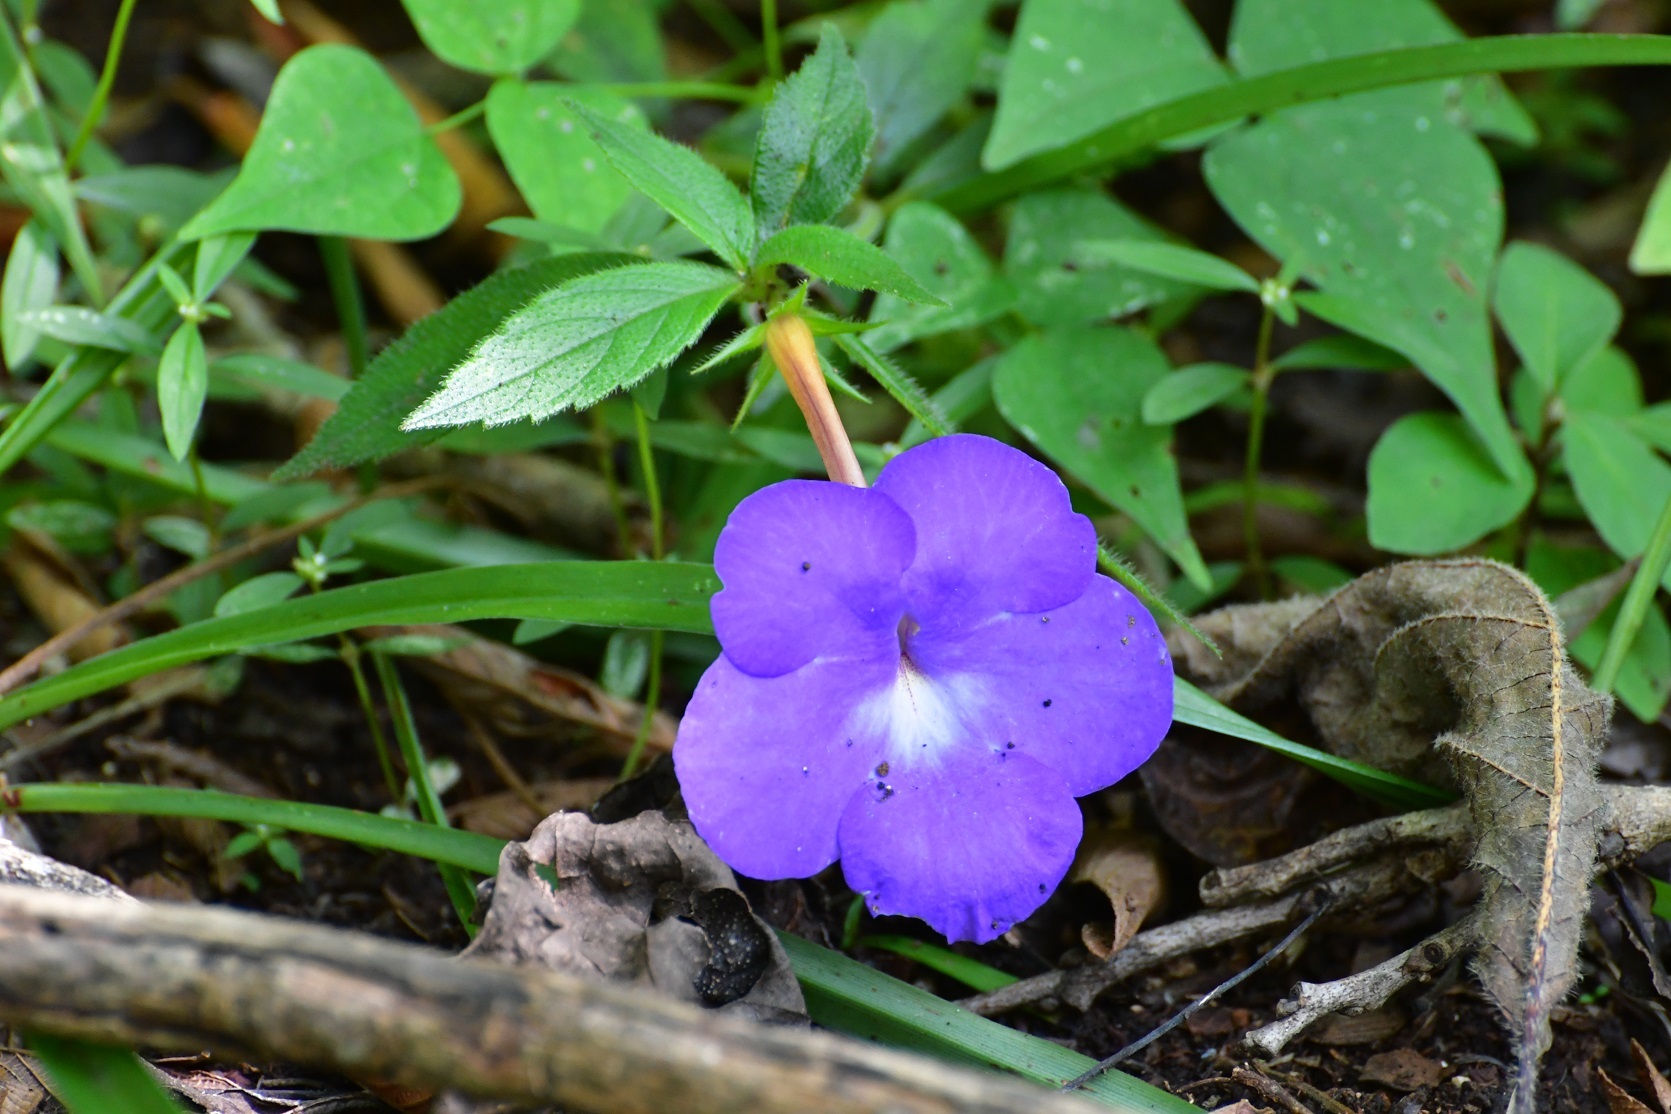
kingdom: Plantae
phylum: Tracheophyta
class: Magnoliopsida
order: Lamiales
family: Gesneriaceae
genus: Achimenes
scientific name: Achimenes longiflora
